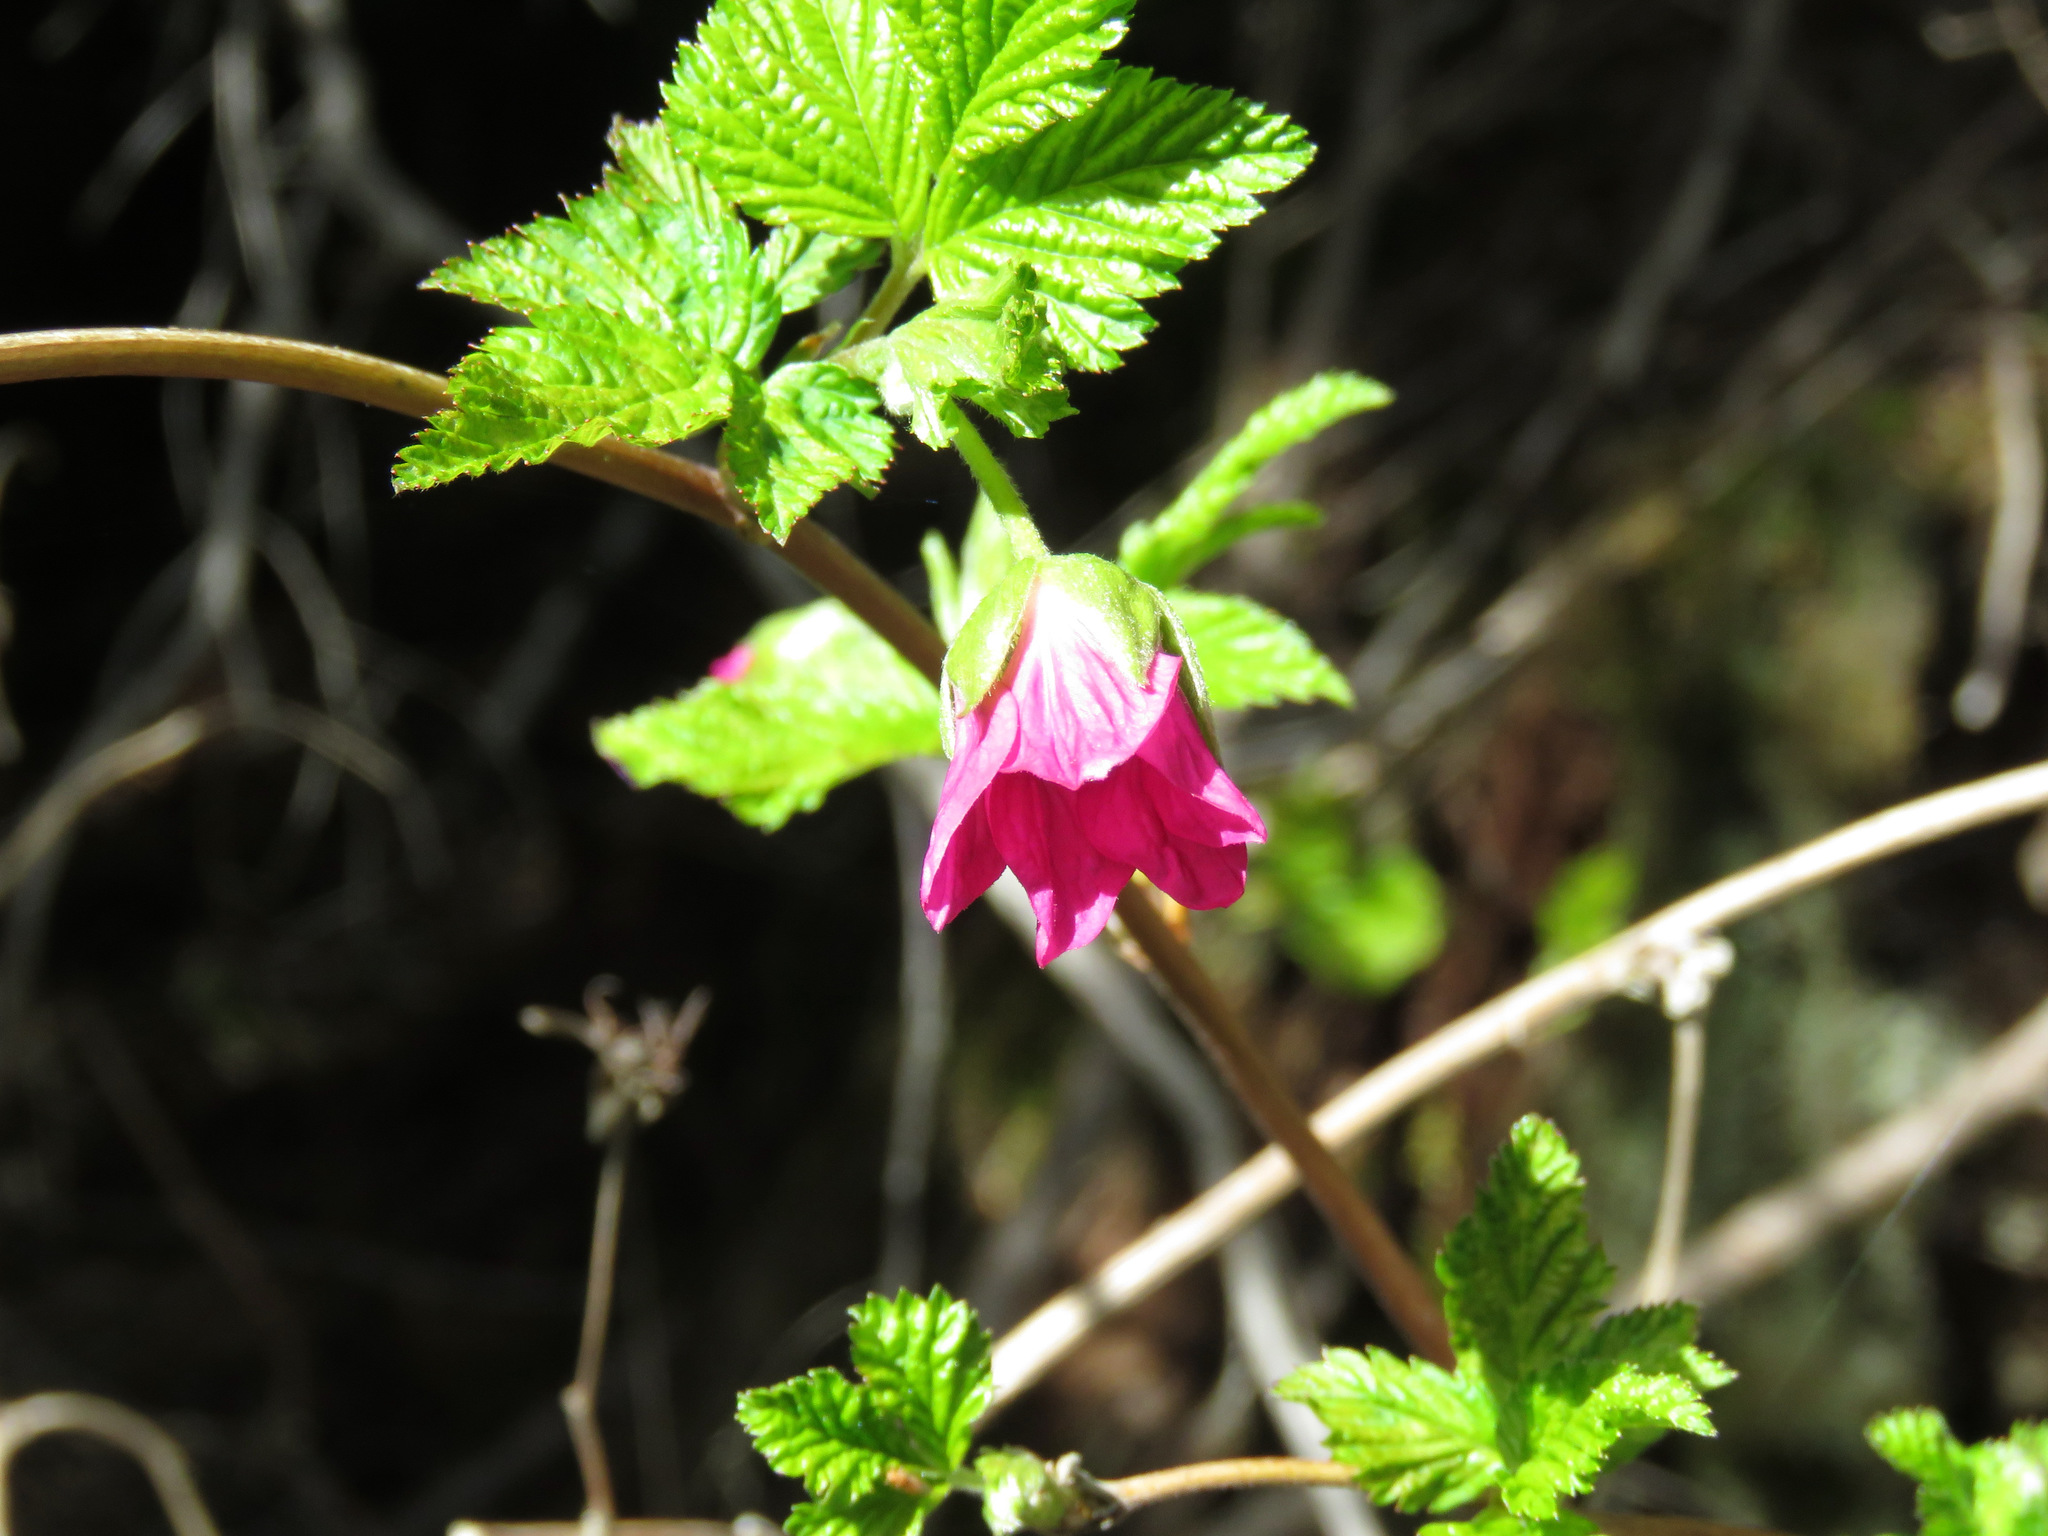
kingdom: Plantae
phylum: Tracheophyta
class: Magnoliopsida
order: Rosales
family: Rosaceae
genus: Rubus
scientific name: Rubus spectabilis
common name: Salmonberry
